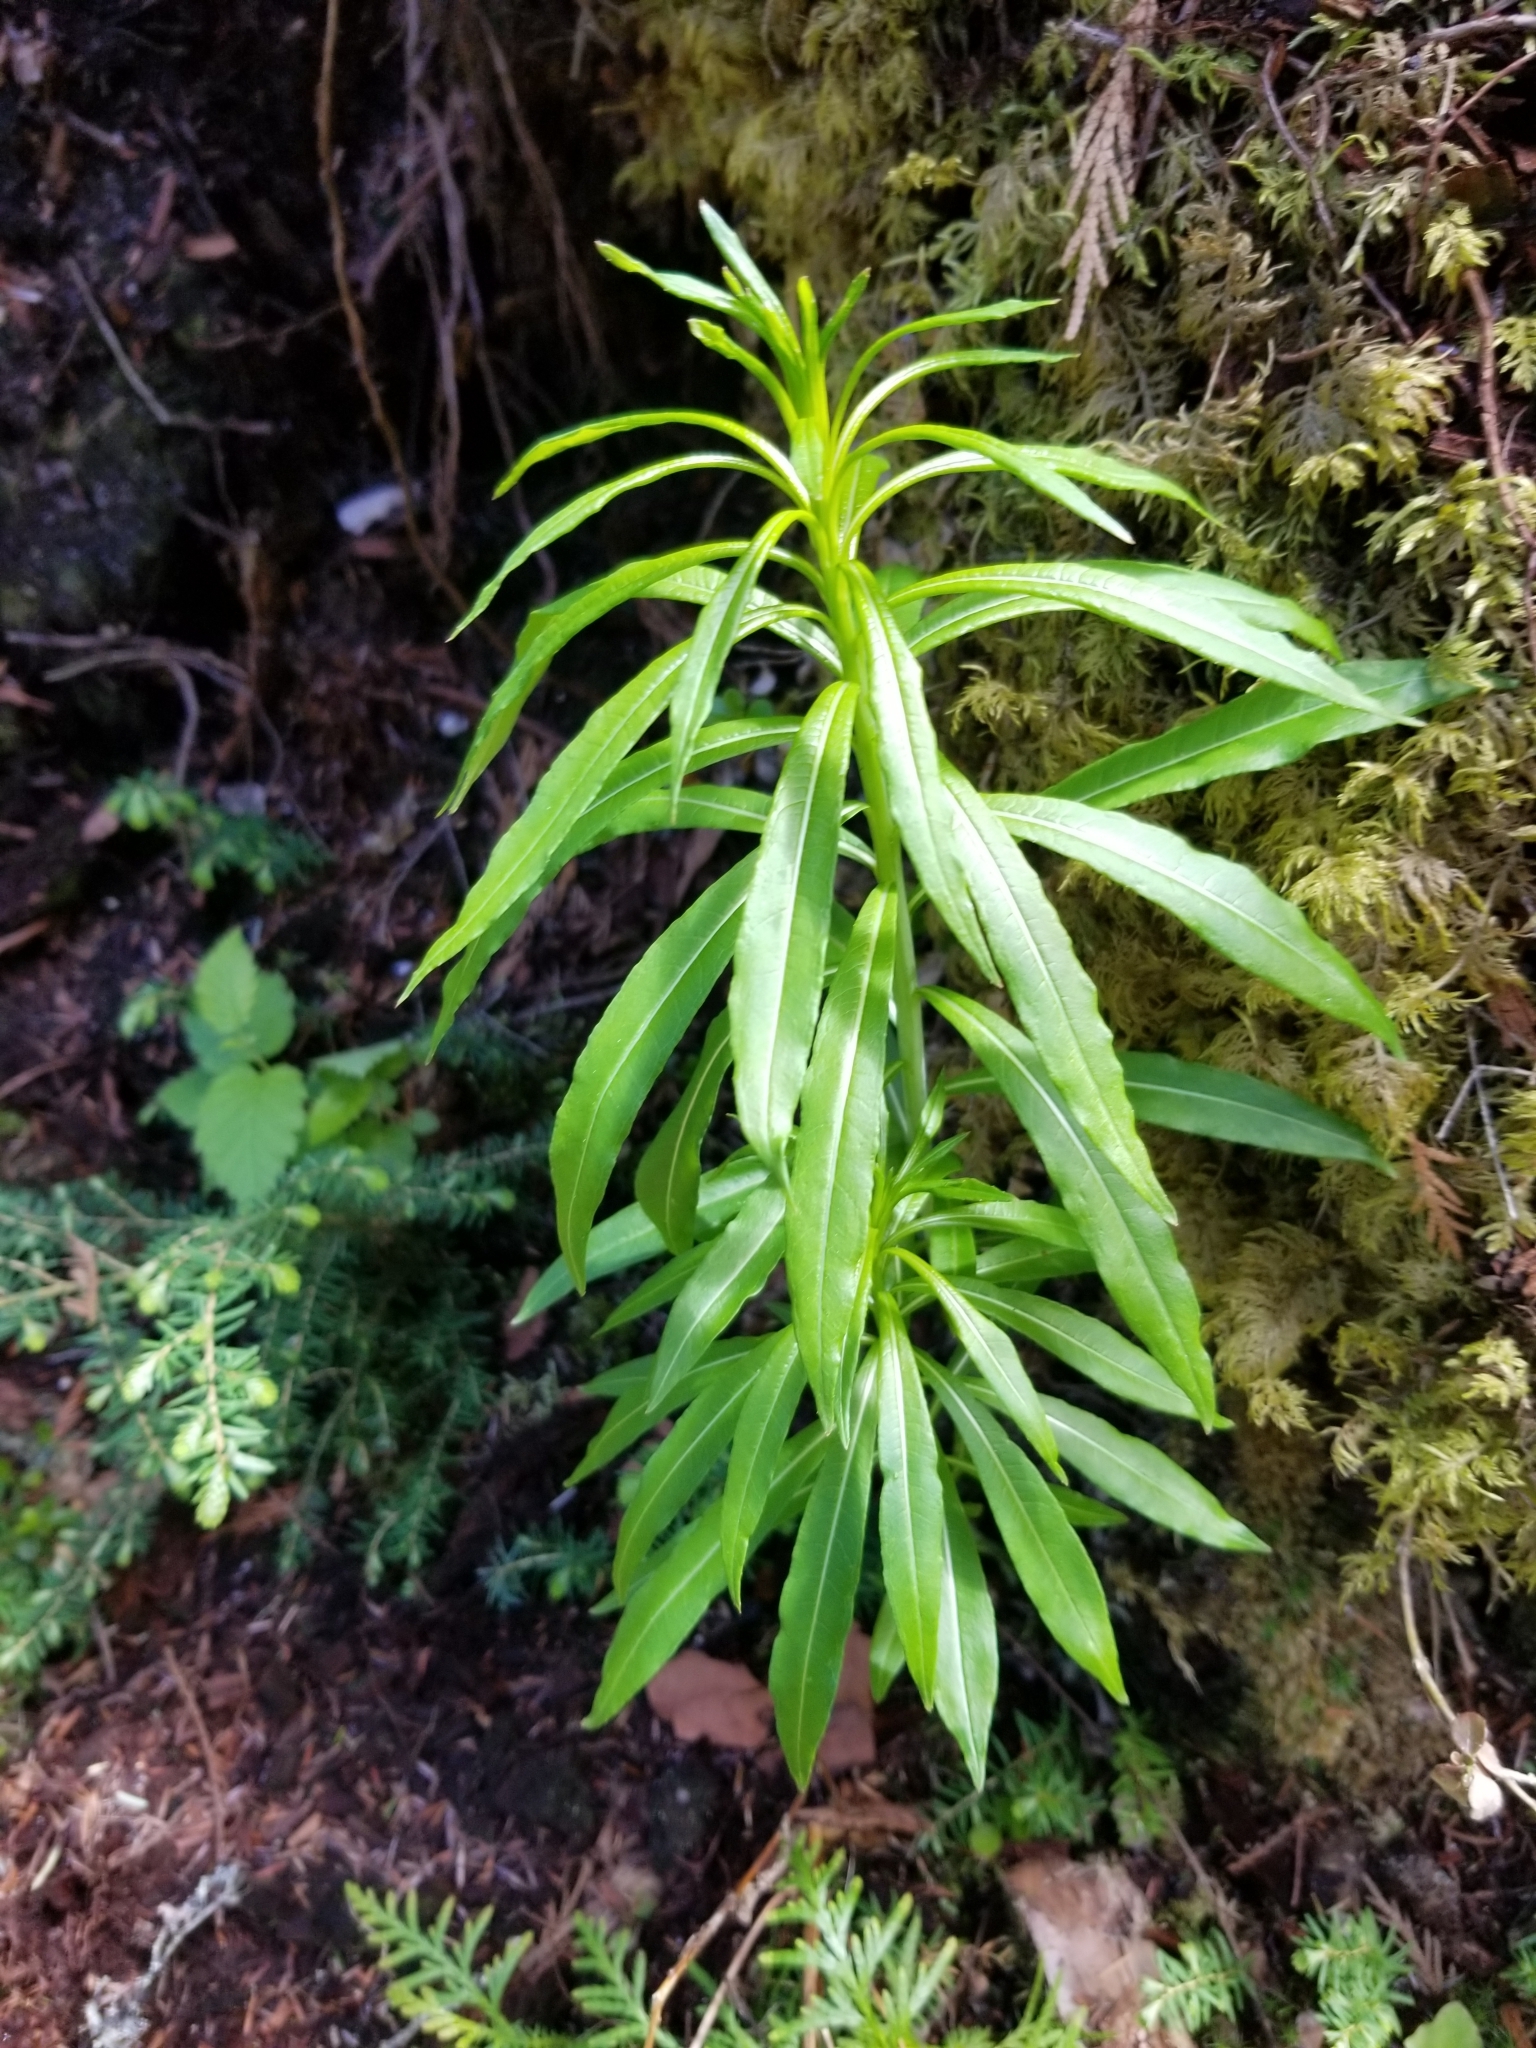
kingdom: Plantae
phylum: Tracheophyta
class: Magnoliopsida
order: Myrtales
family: Onagraceae
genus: Chamaenerion
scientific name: Chamaenerion angustifolium
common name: Fireweed
